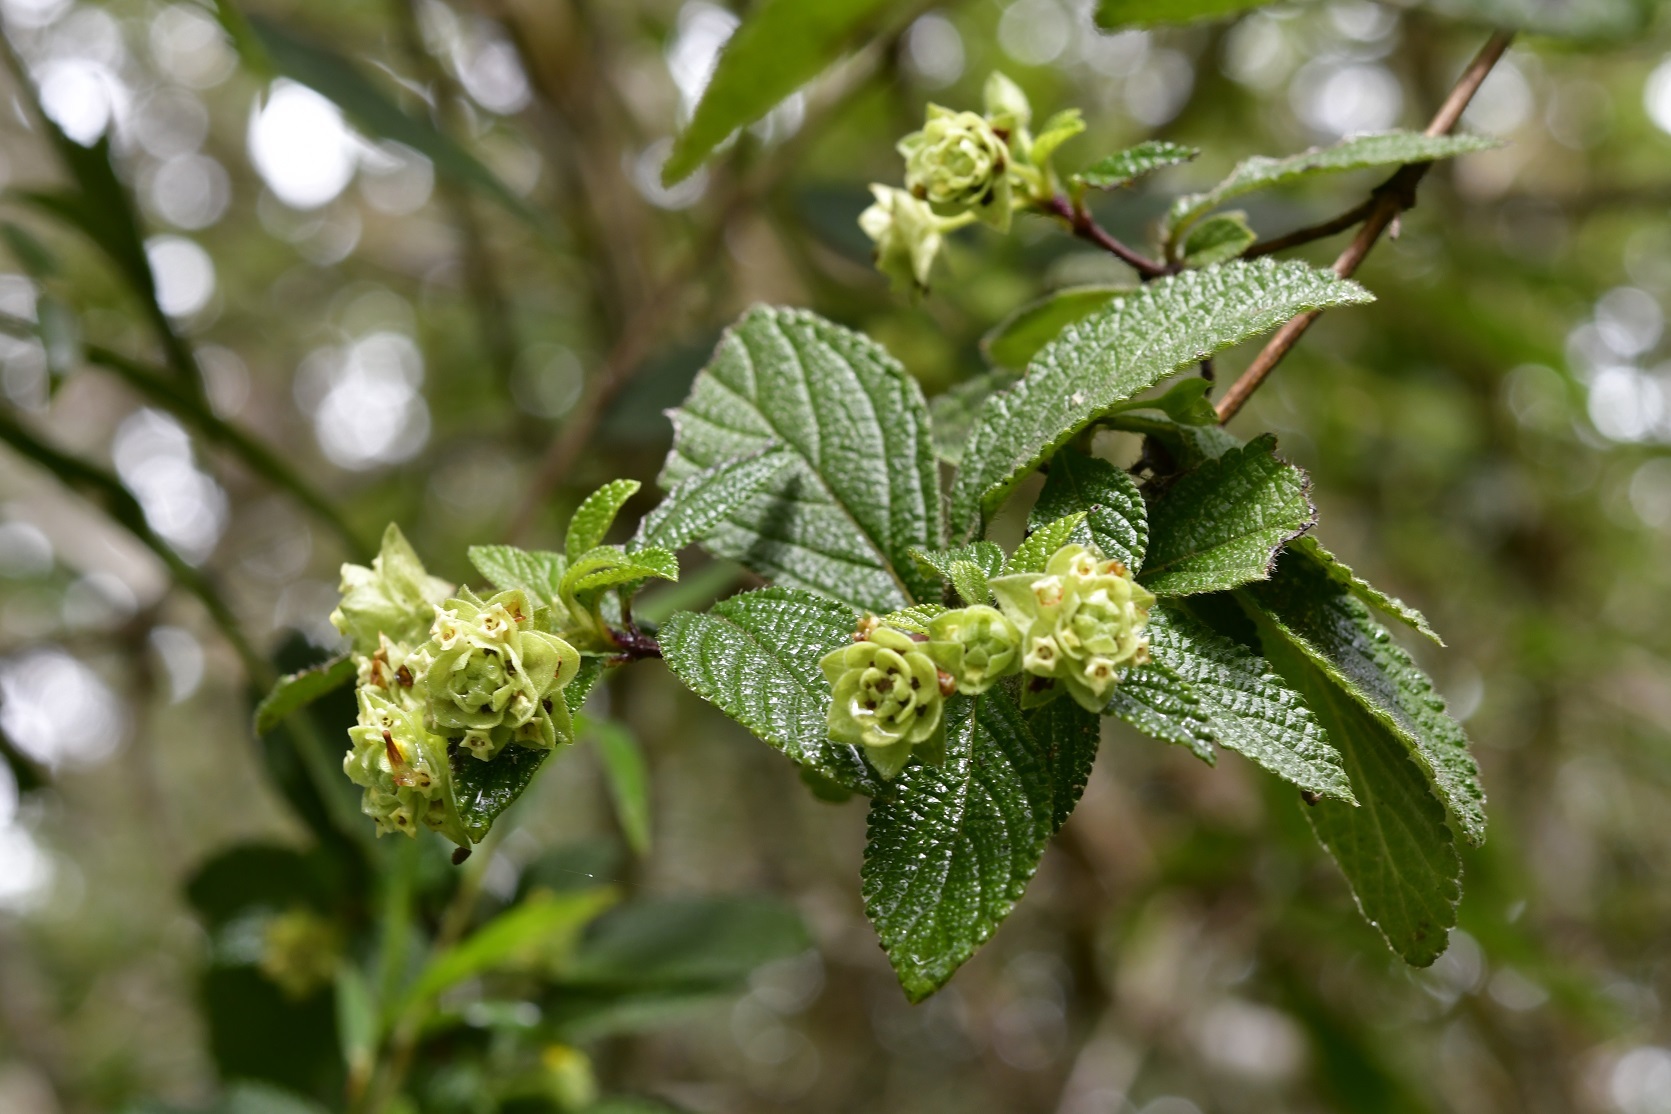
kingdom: Plantae
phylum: Tracheophyta
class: Magnoliopsida
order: Lamiales
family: Verbenaceae
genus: Lippia
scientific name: Lippia bracteosa
